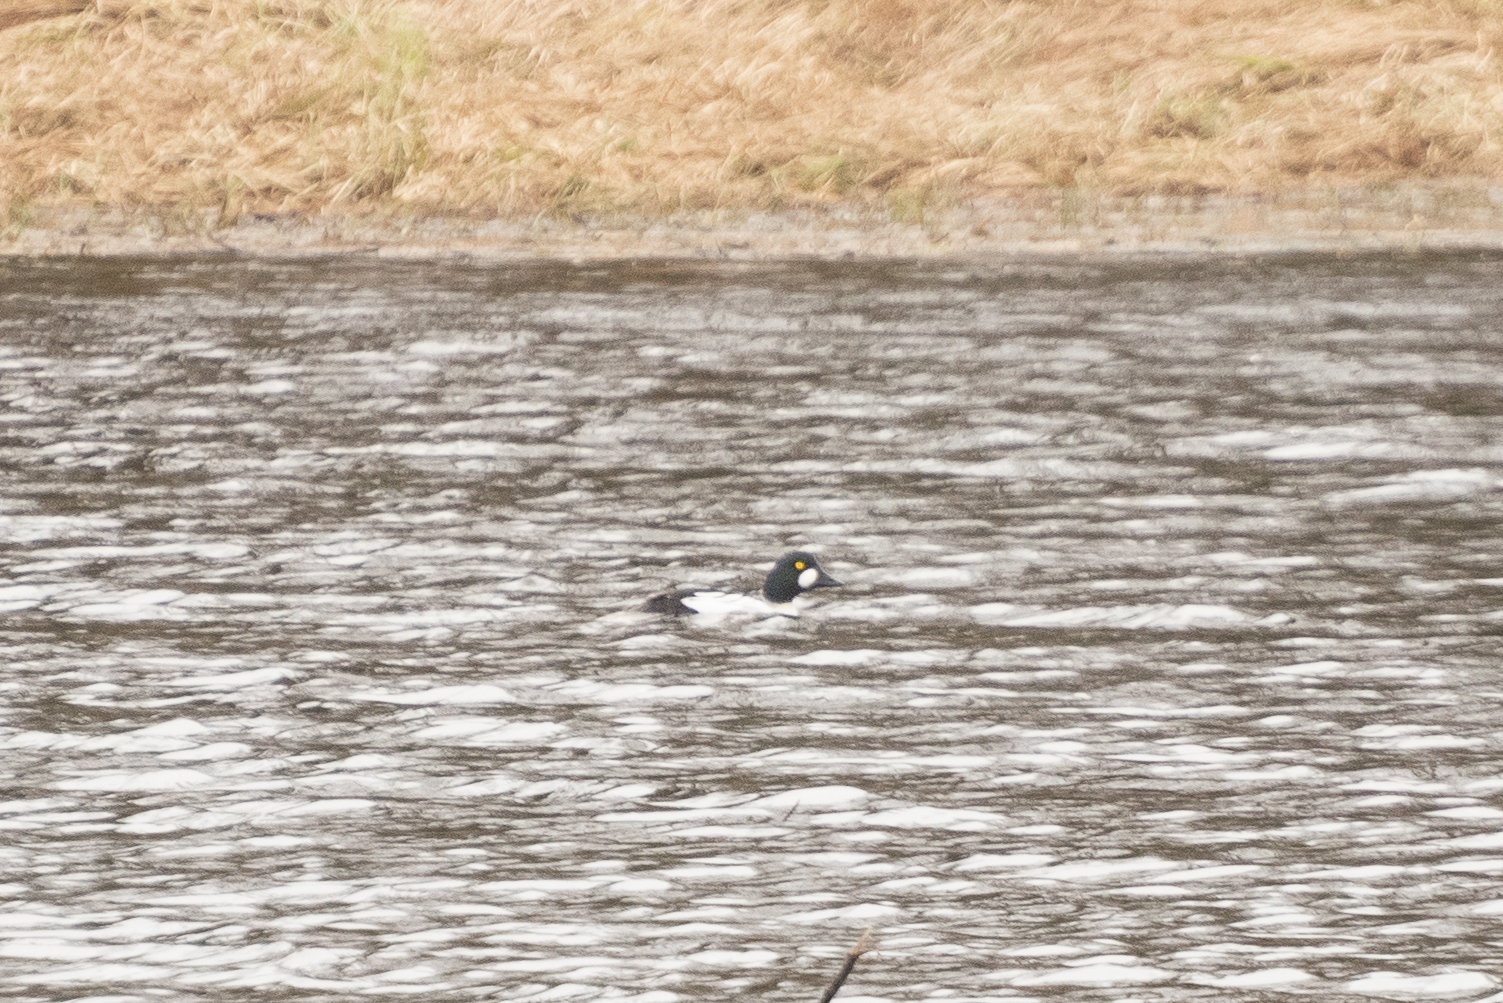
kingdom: Animalia
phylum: Chordata
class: Aves
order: Anseriformes
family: Anatidae
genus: Bucephala
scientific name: Bucephala clangula
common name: Common goldeneye
